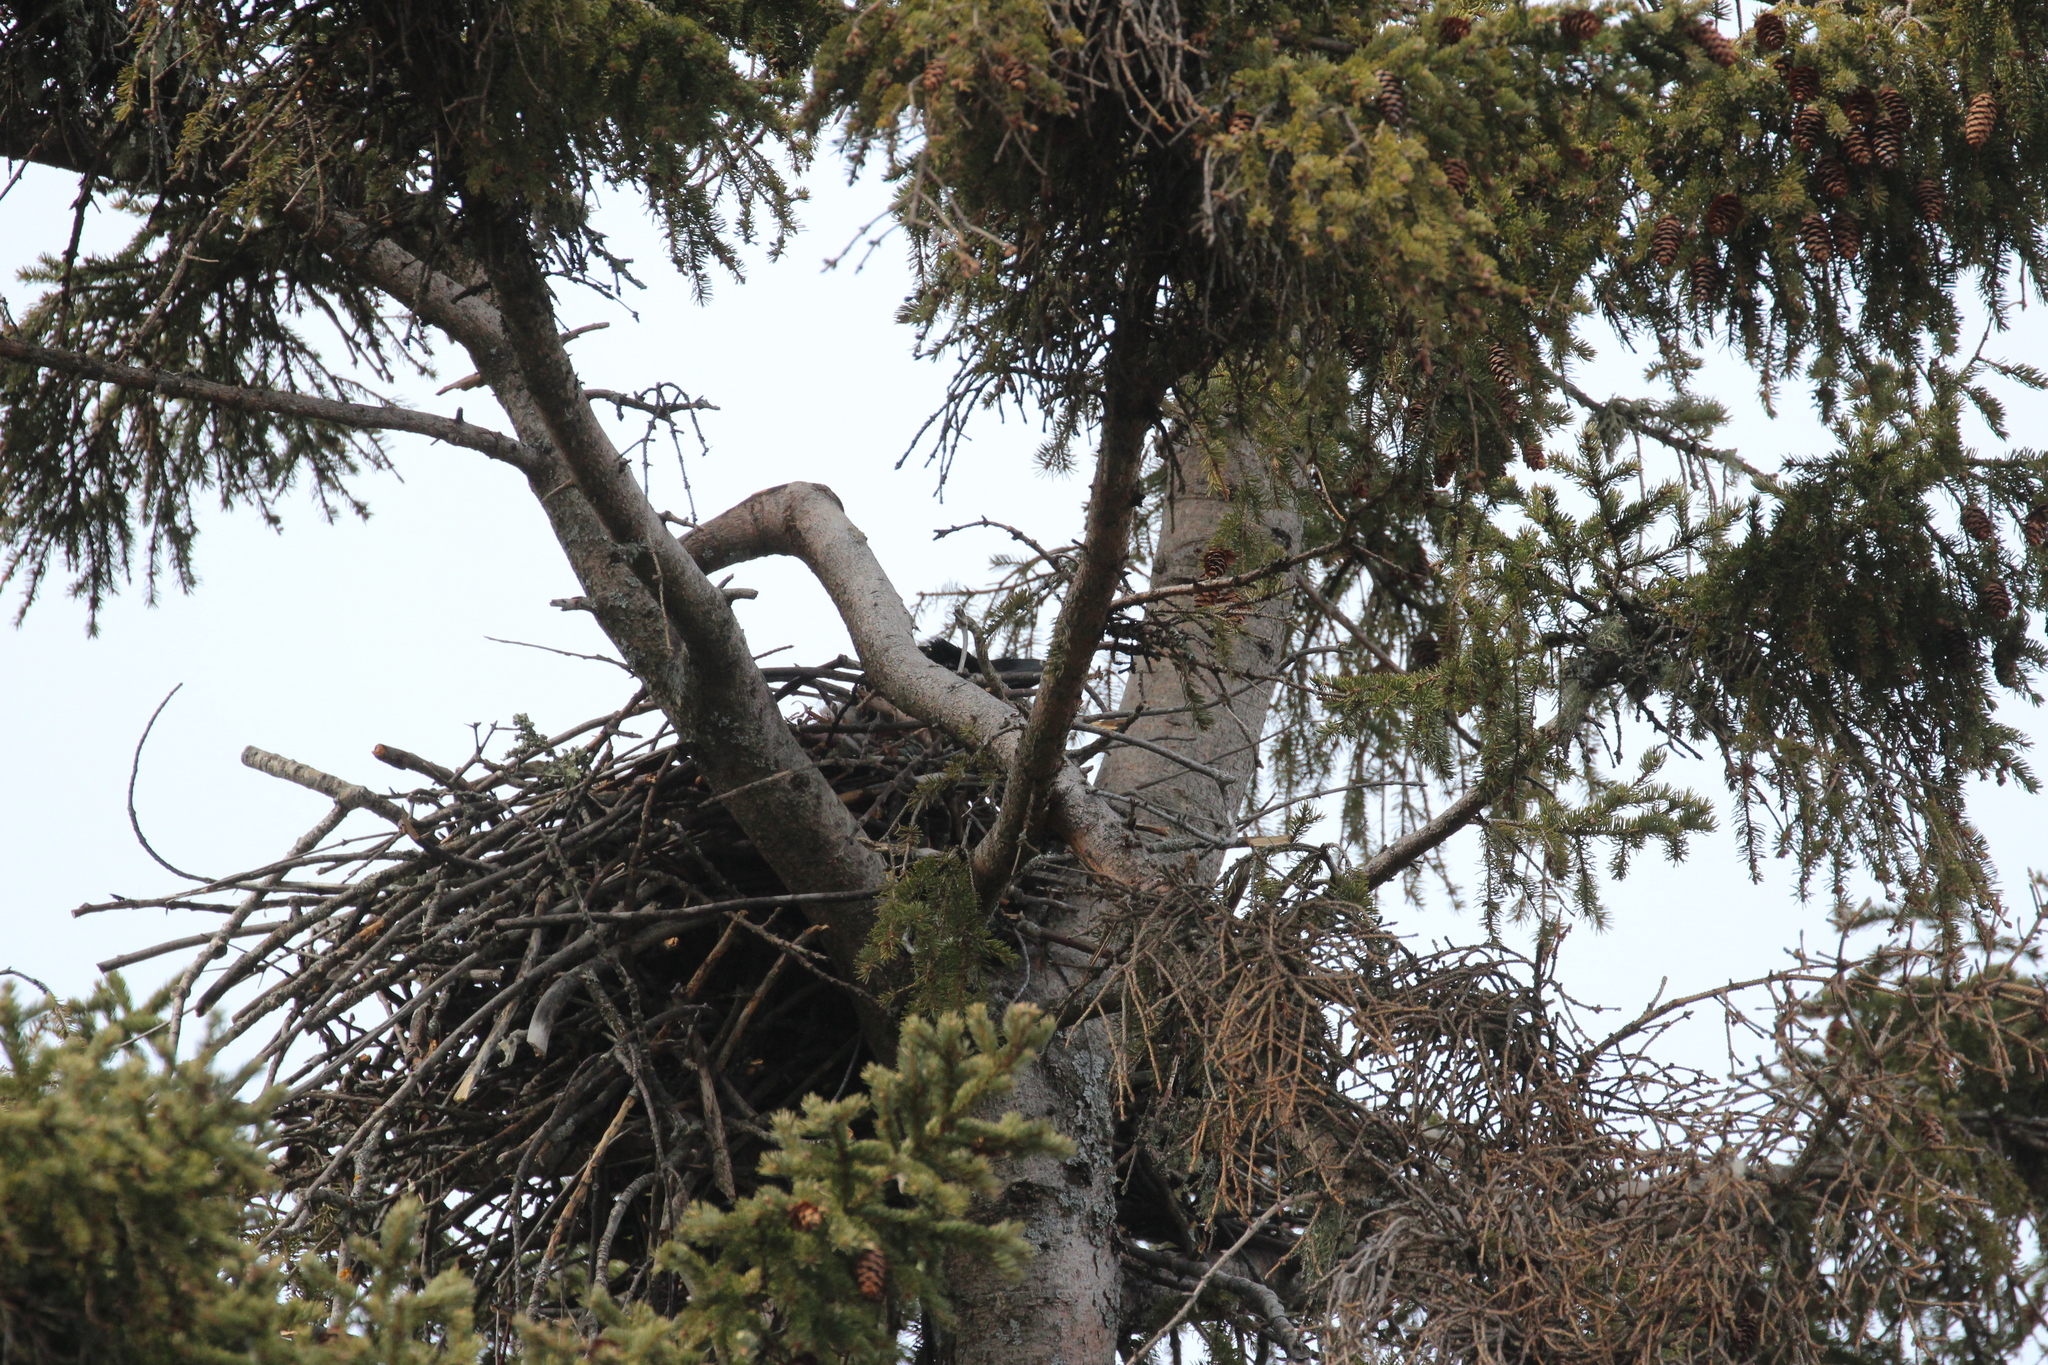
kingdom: Animalia
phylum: Chordata
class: Aves
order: Passeriformes
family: Corvidae
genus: Corvus
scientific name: Corvus corax
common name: Common raven
